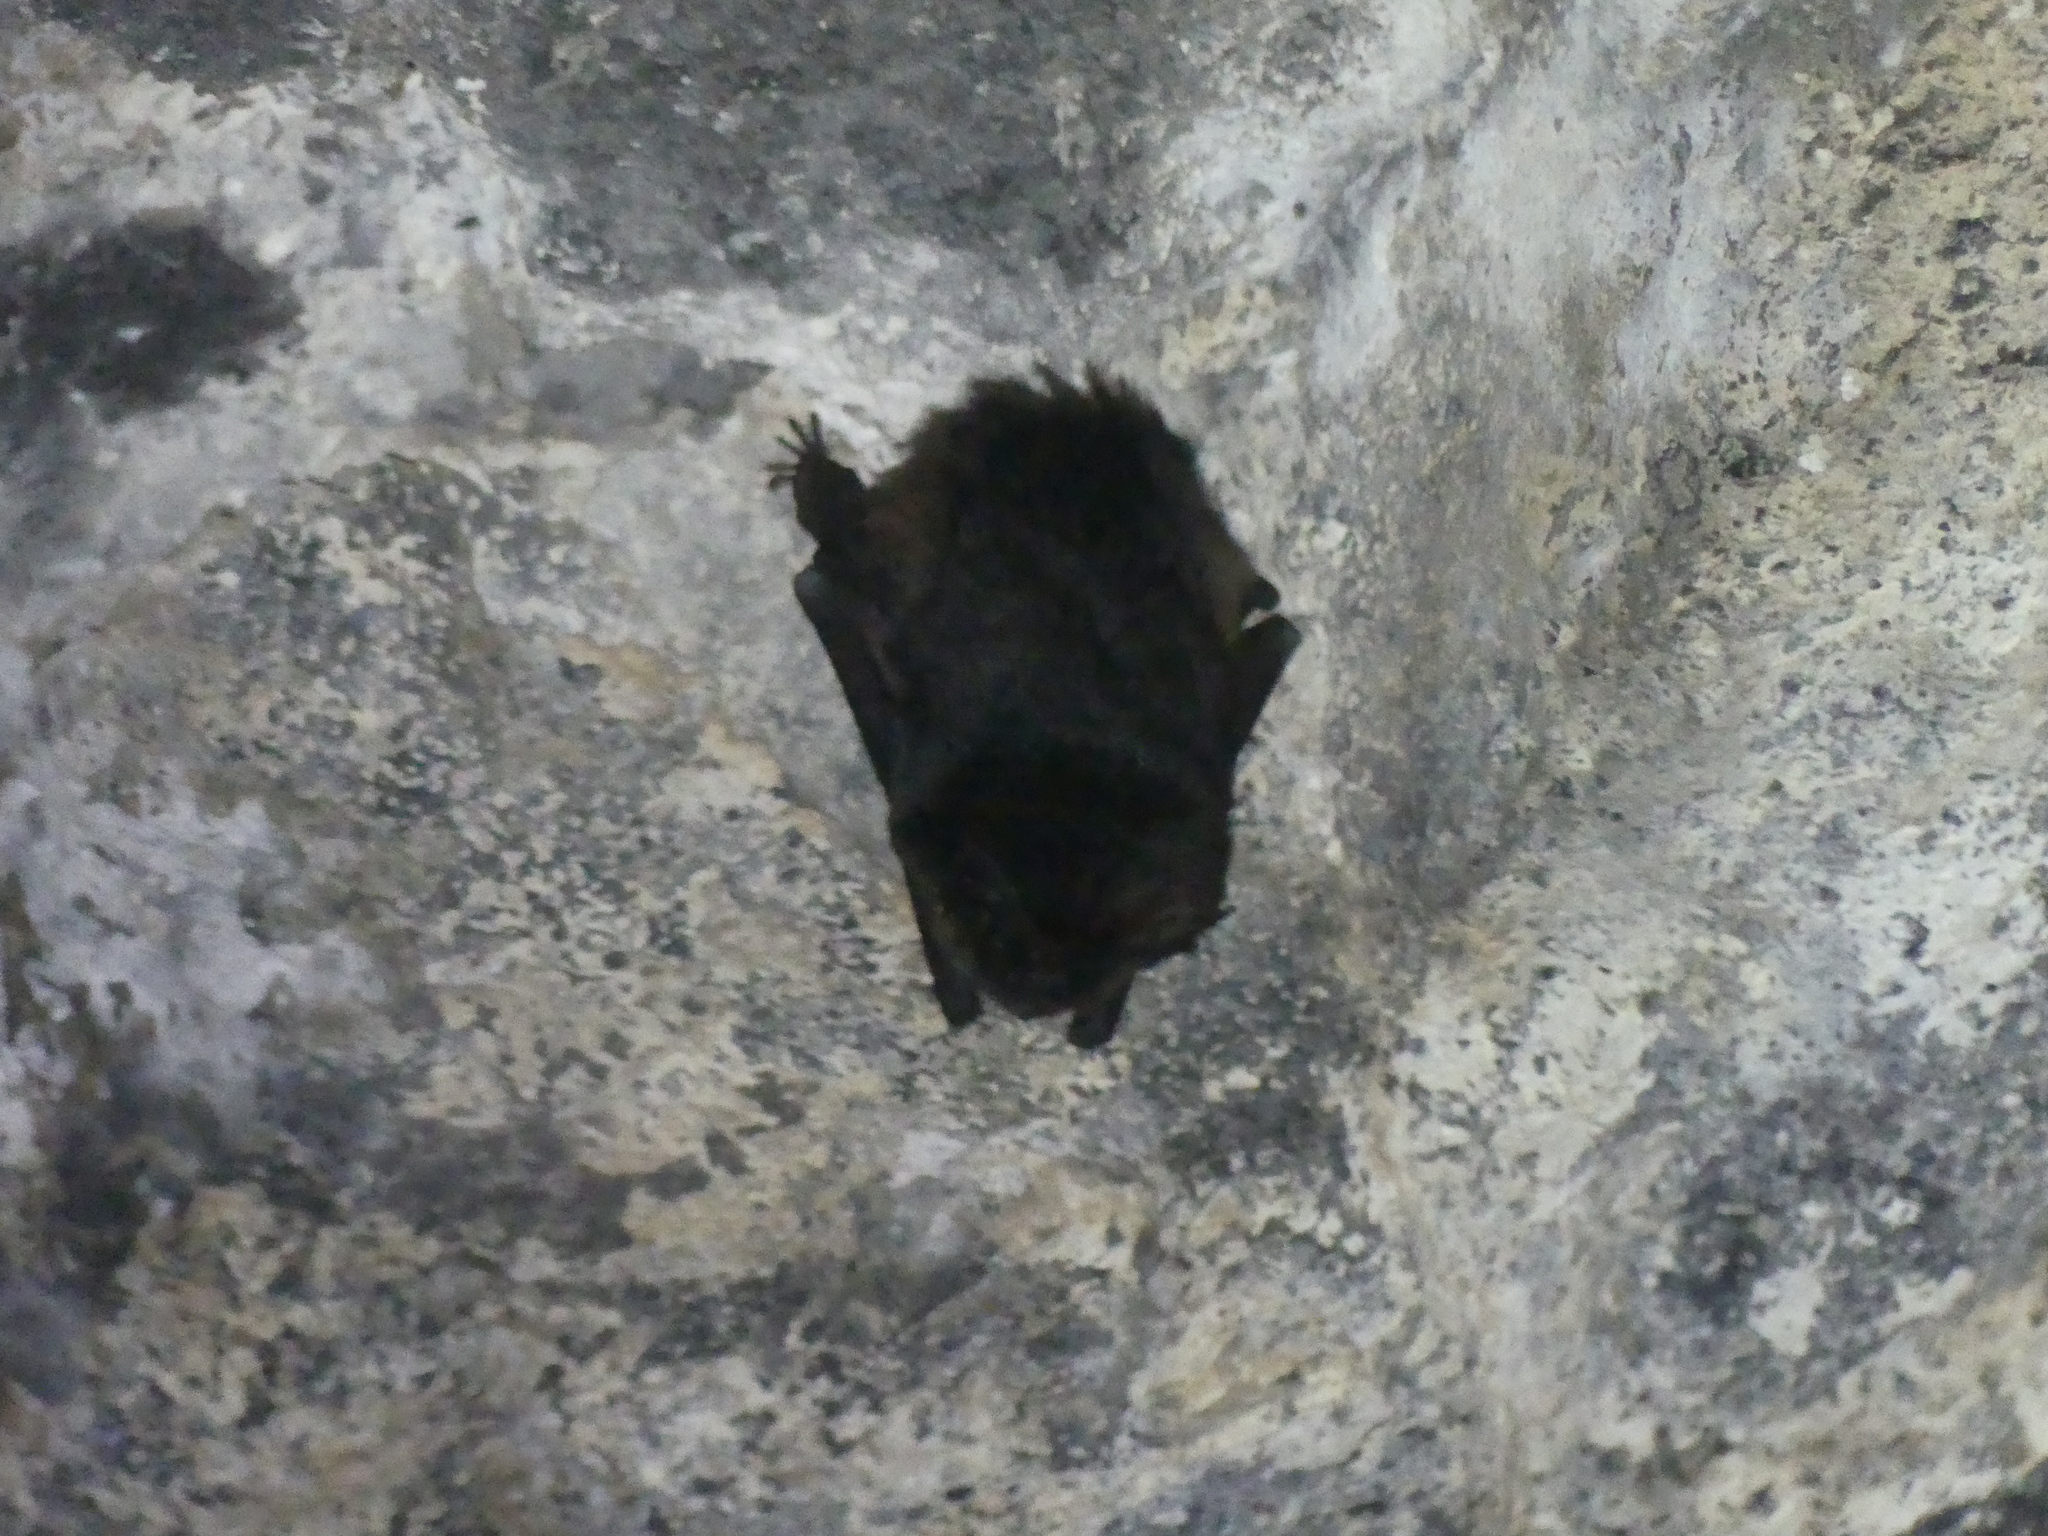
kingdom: Animalia
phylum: Chordata
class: Mammalia
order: Chiroptera
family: Vespertilionidae
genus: Barbastella
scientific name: Barbastella barbastellus
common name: Western barbastelle
